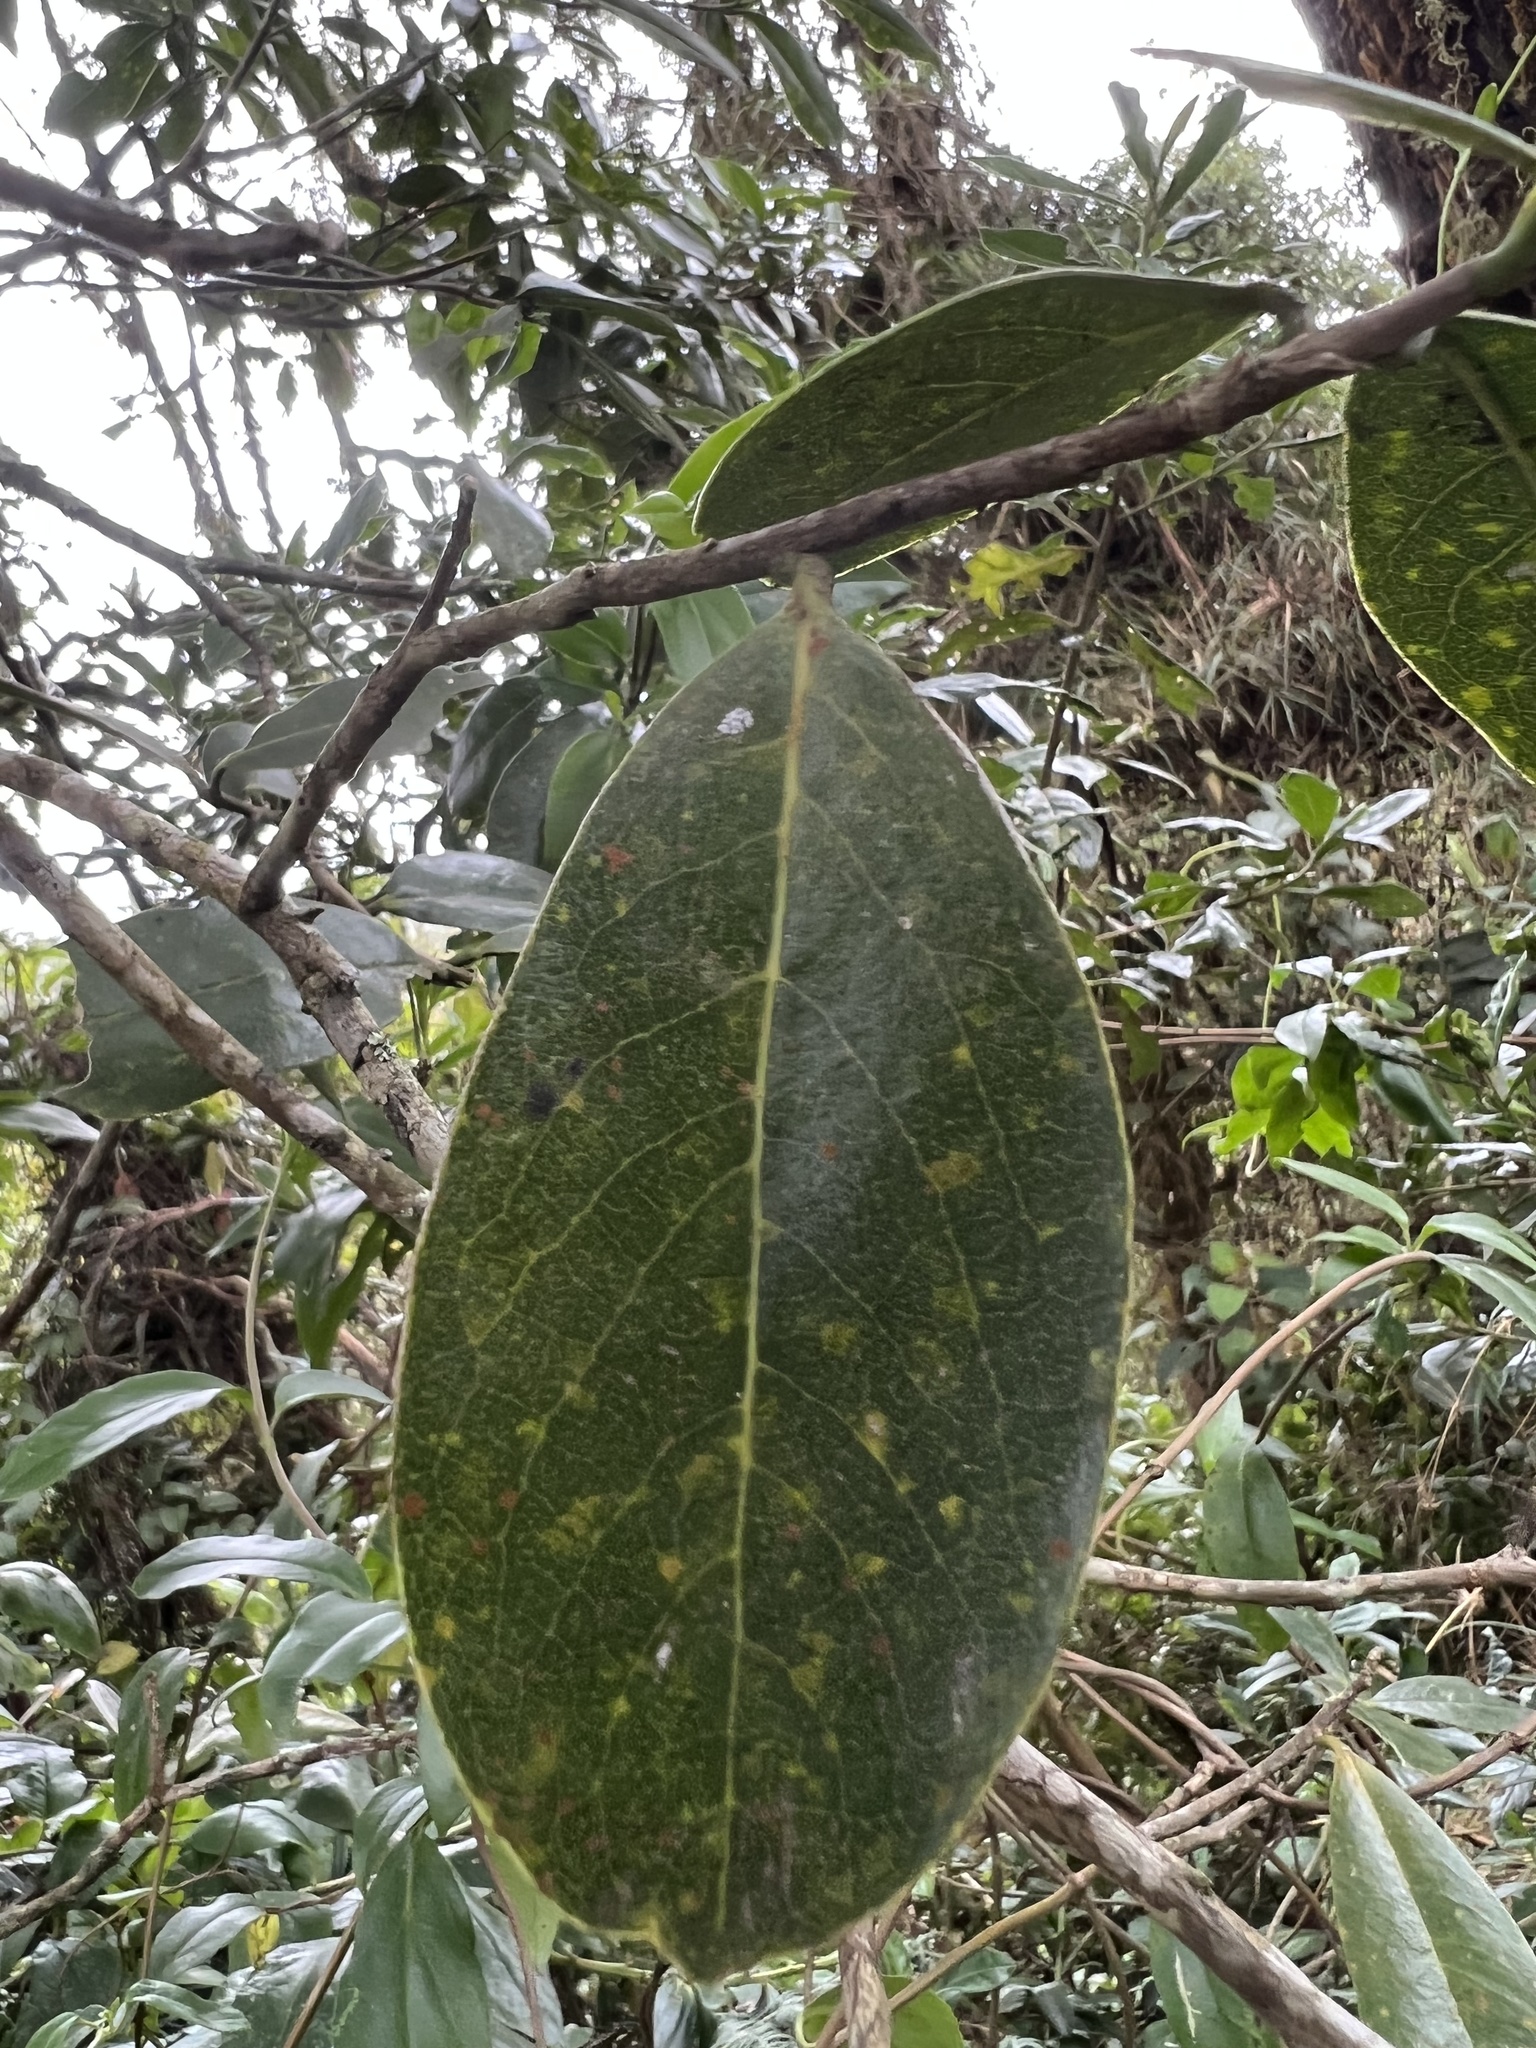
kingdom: Plantae
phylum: Tracheophyta
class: Magnoliopsida
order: Malvales
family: Thymelaeaceae
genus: Daphnopsis
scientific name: Daphnopsis caracasana
